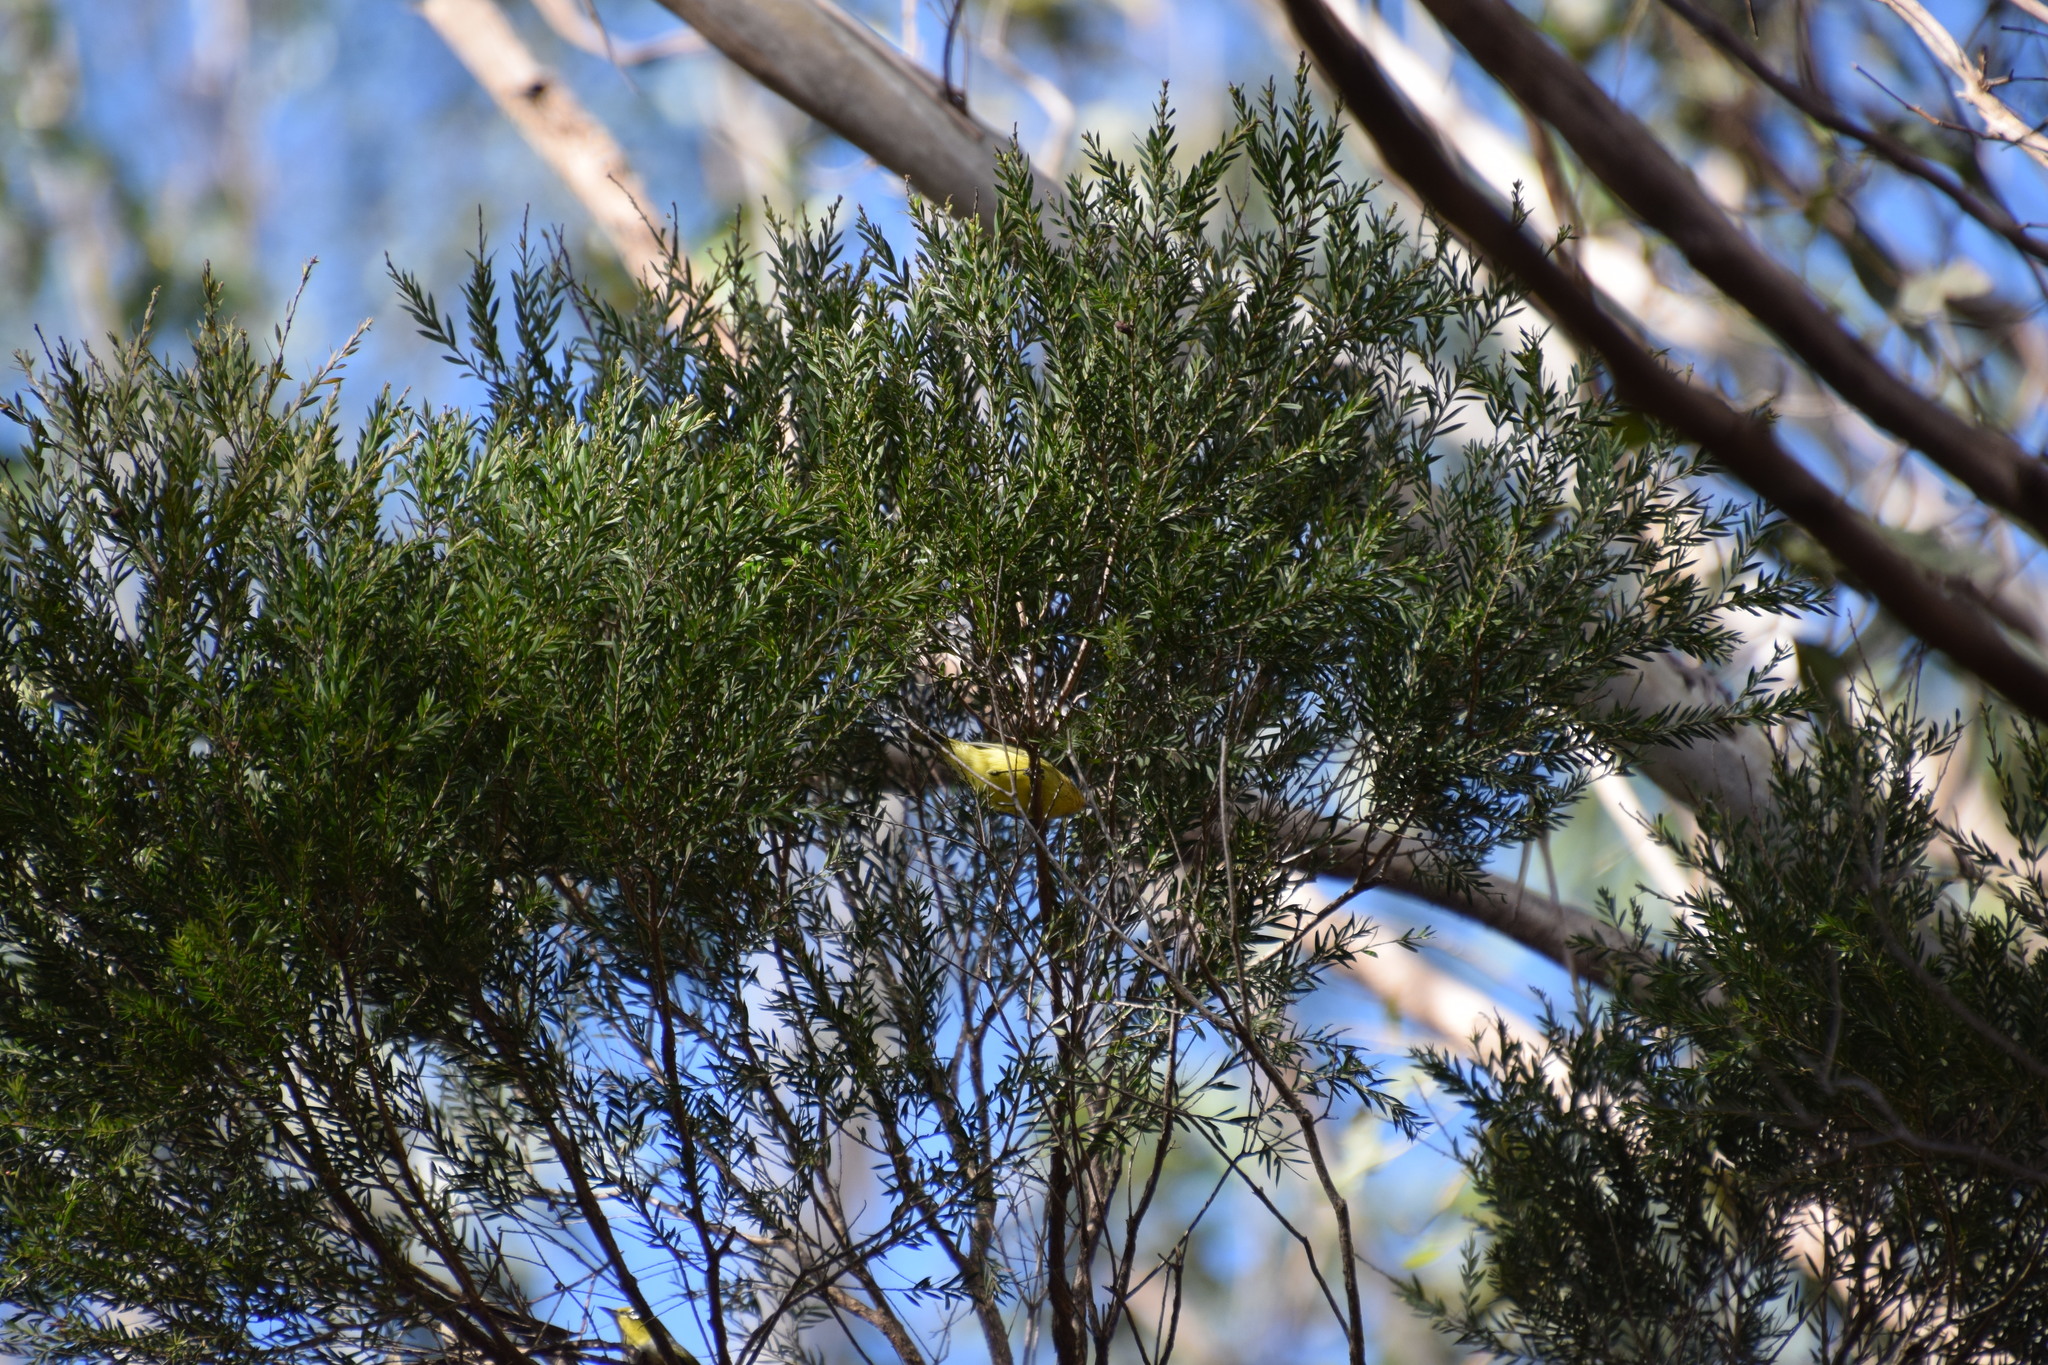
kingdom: Animalia
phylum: Chordata
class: Aves
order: Passeriformes
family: Acanthizidae
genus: Acanthiza
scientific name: Acanthiza nana
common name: Yellow thornbill
